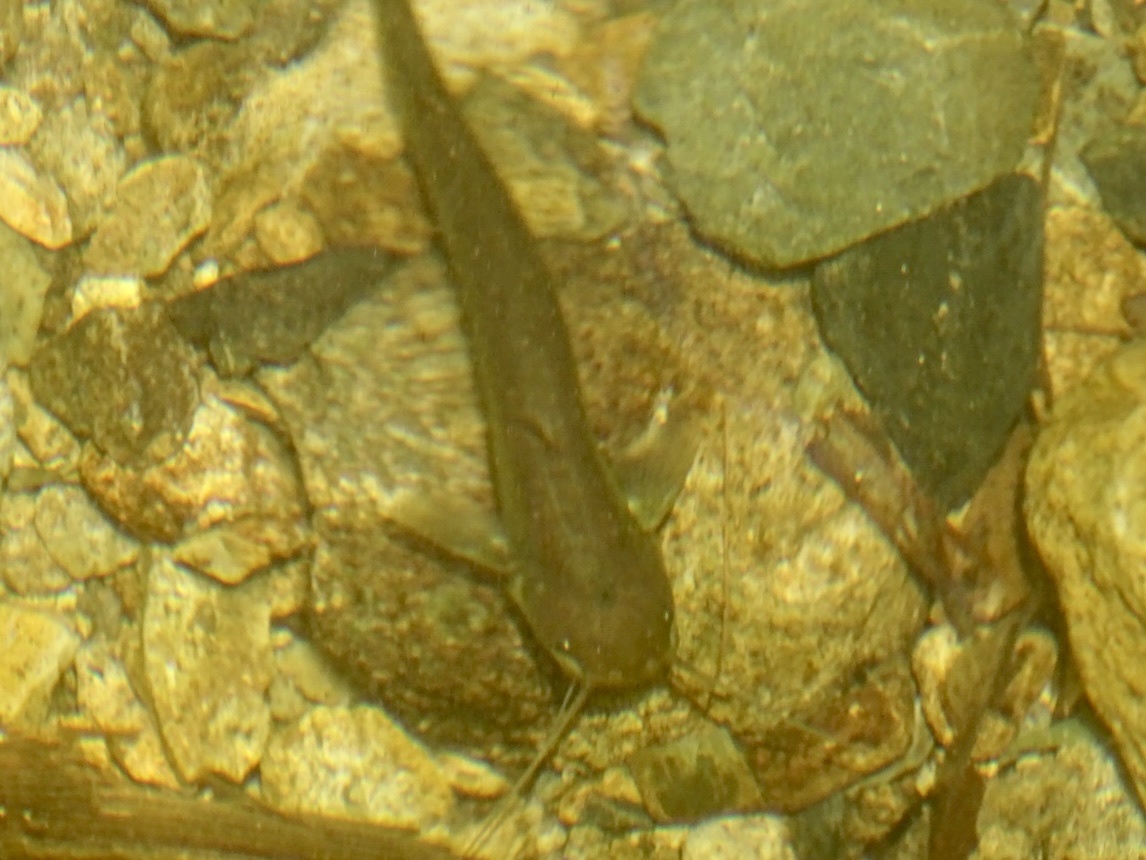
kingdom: Animalia
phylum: Chordata
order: Siluriformes
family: Siluridae
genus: Pterocryptis
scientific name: Pterocryptis anomala
